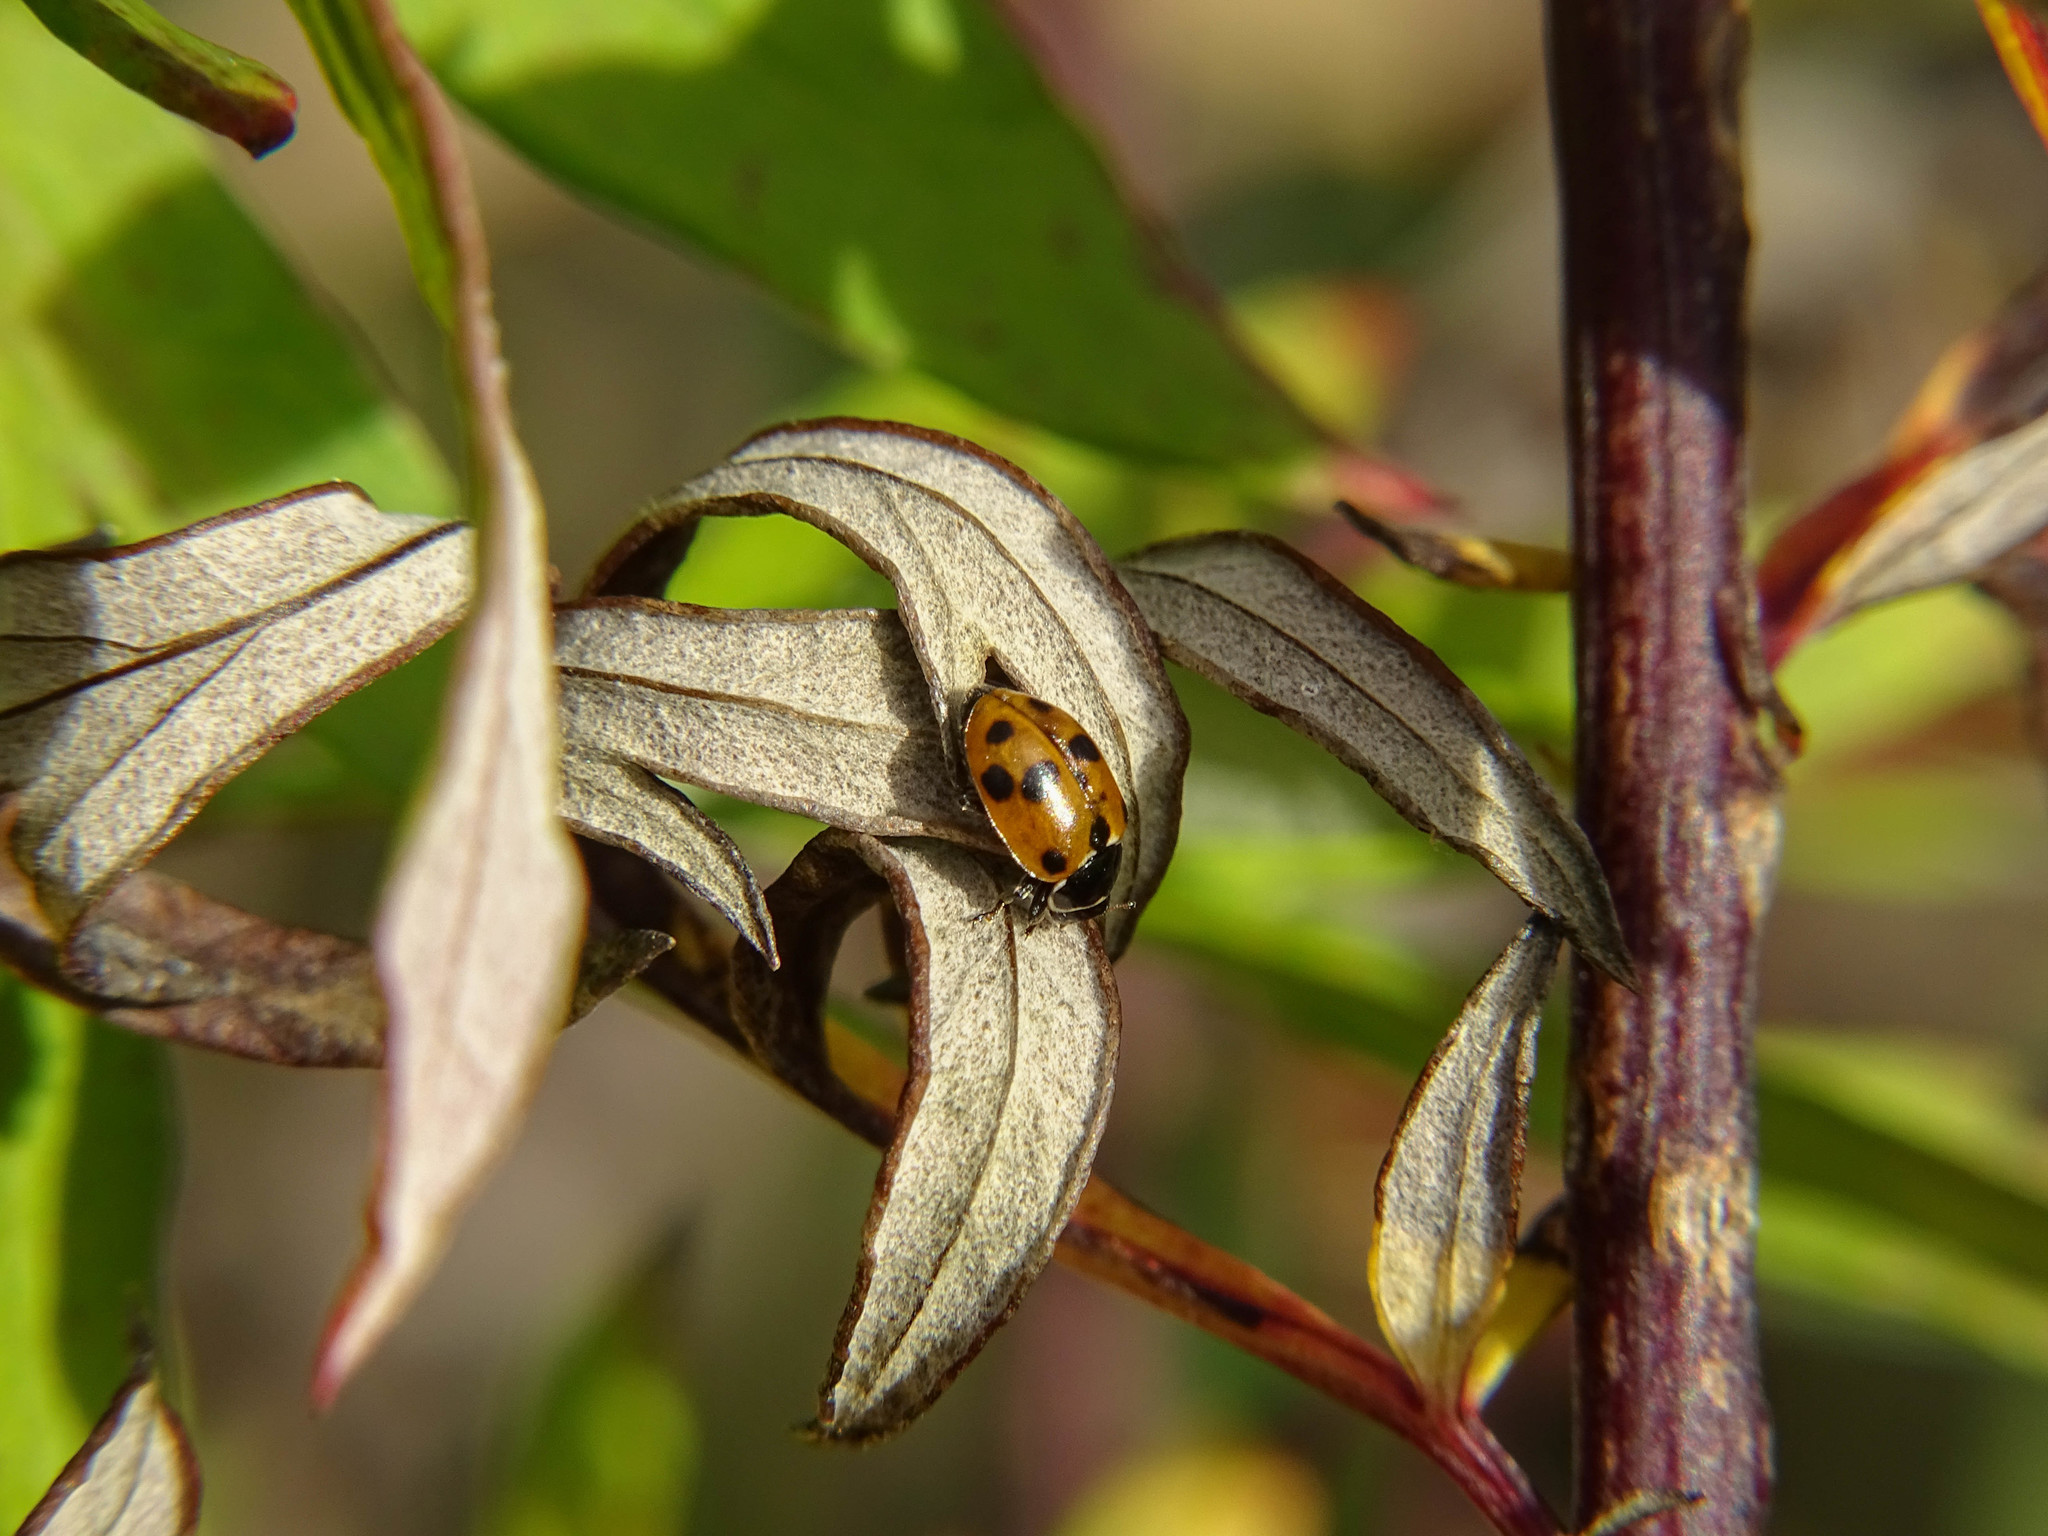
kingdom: Animalia
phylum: Arthropoda
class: Insecta
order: Coleoptera
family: Coccinellidae
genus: Hippodamia
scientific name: Hippodamia variegata
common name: Ladybird beetle
